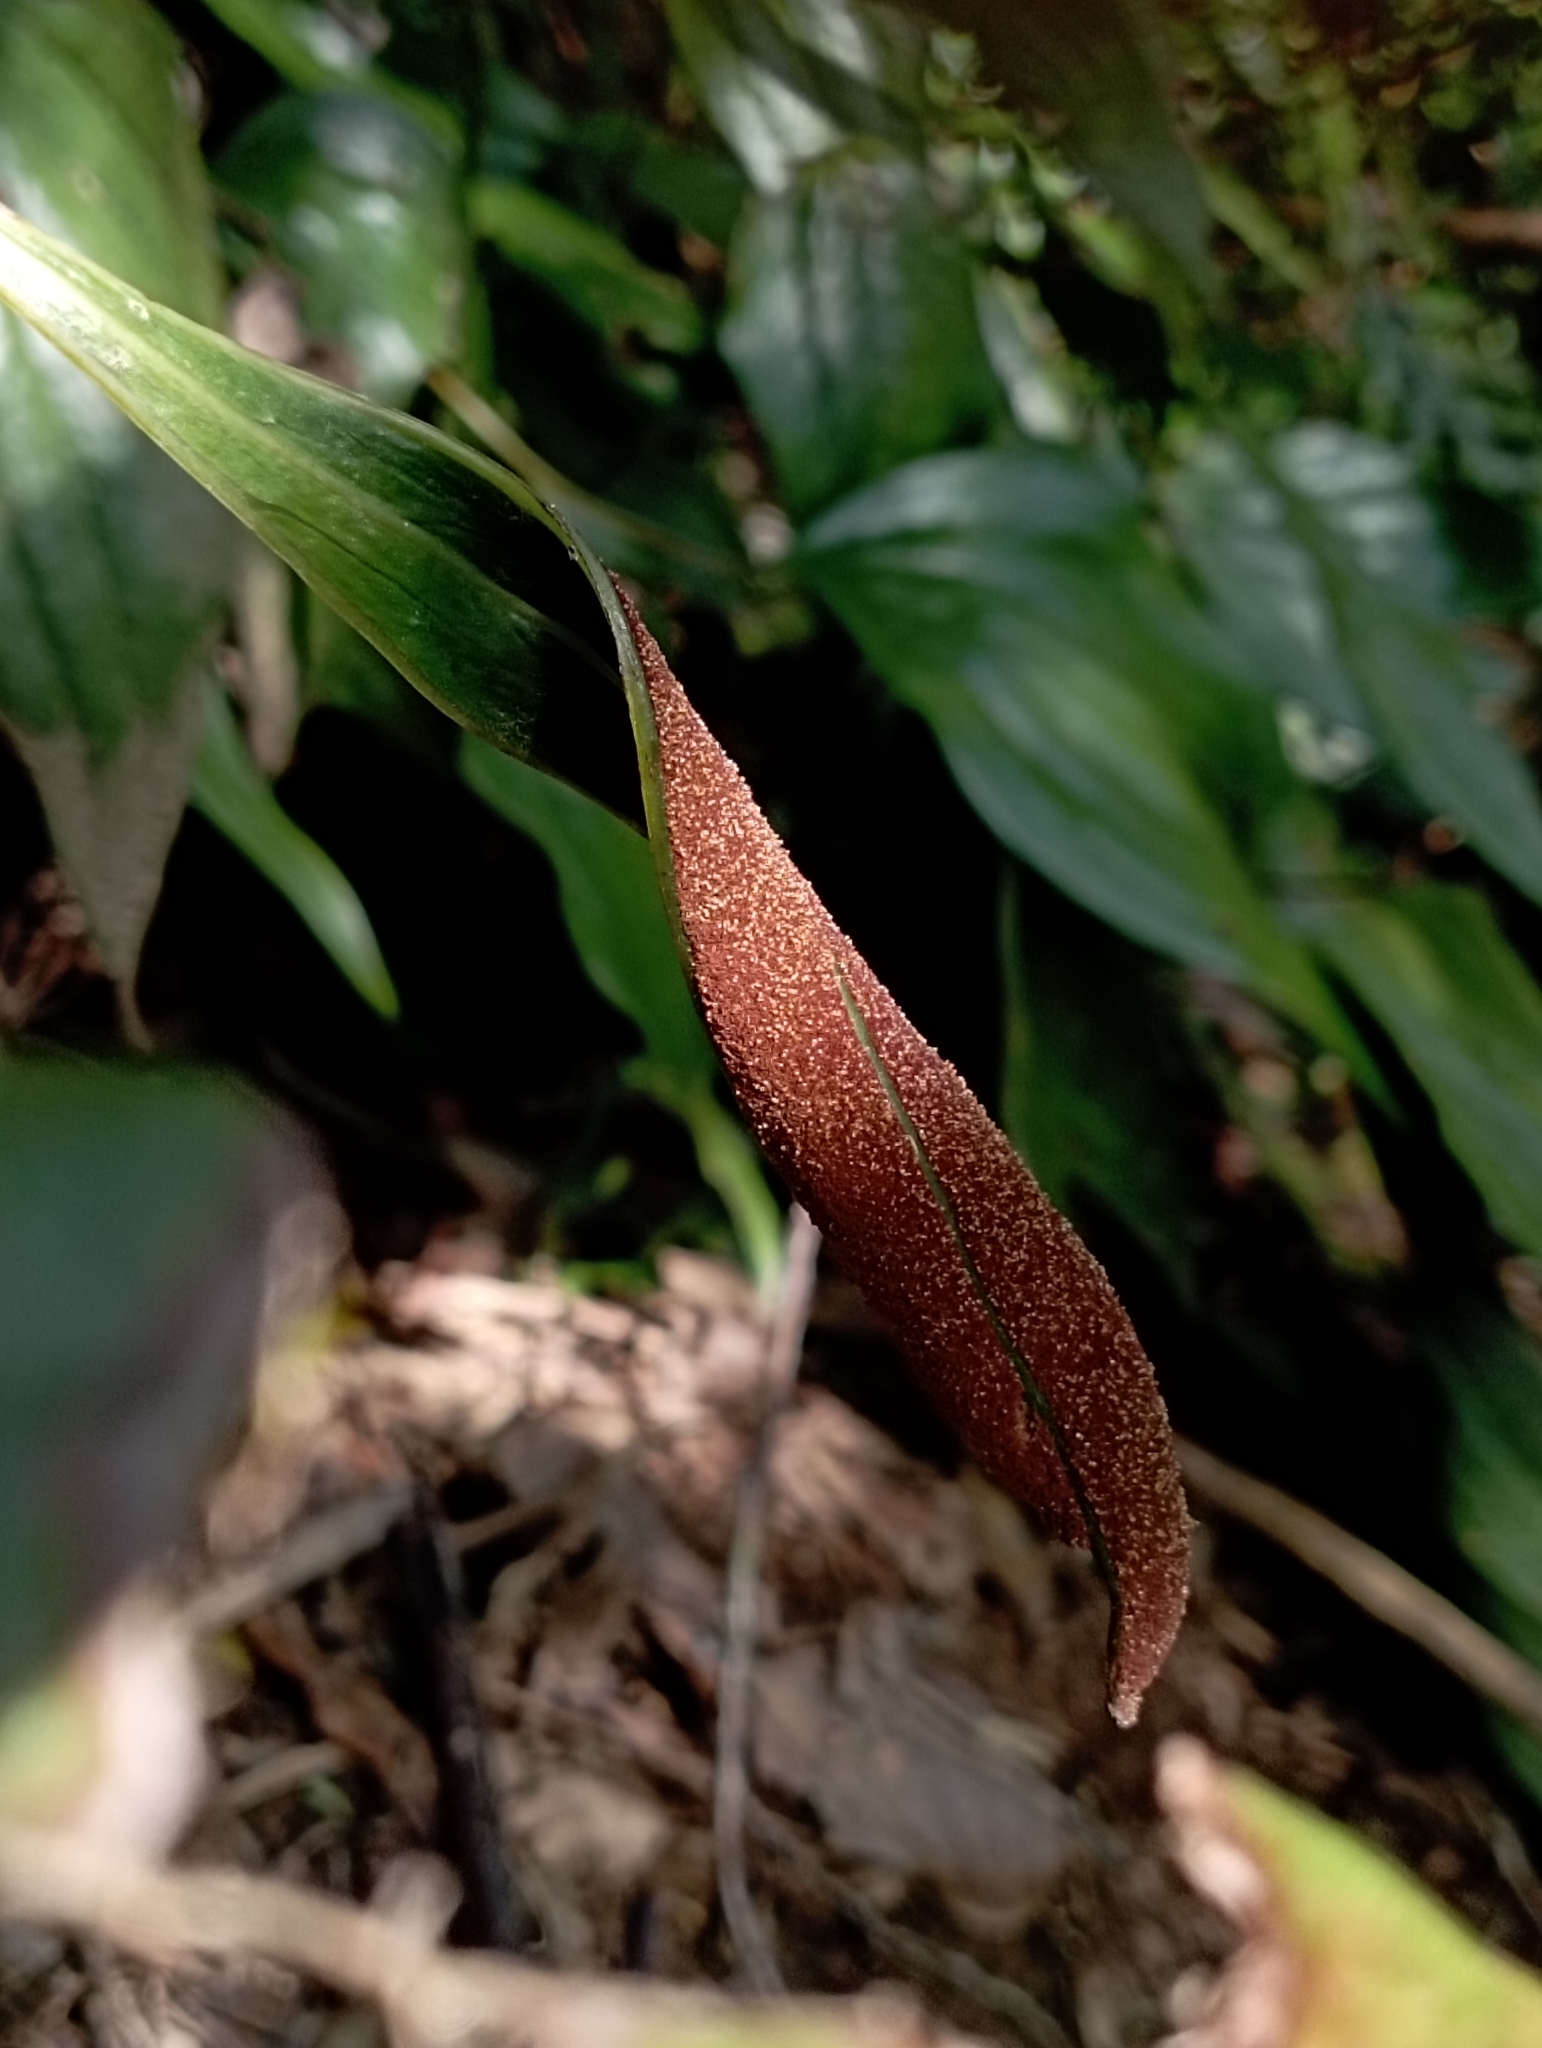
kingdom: Plantae
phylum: Tracheophyta
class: Polypodiopsida
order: Gleicheniales
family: Dipteridaceae
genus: Cheiropleuria
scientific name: Cheiropleuria integrifolia
